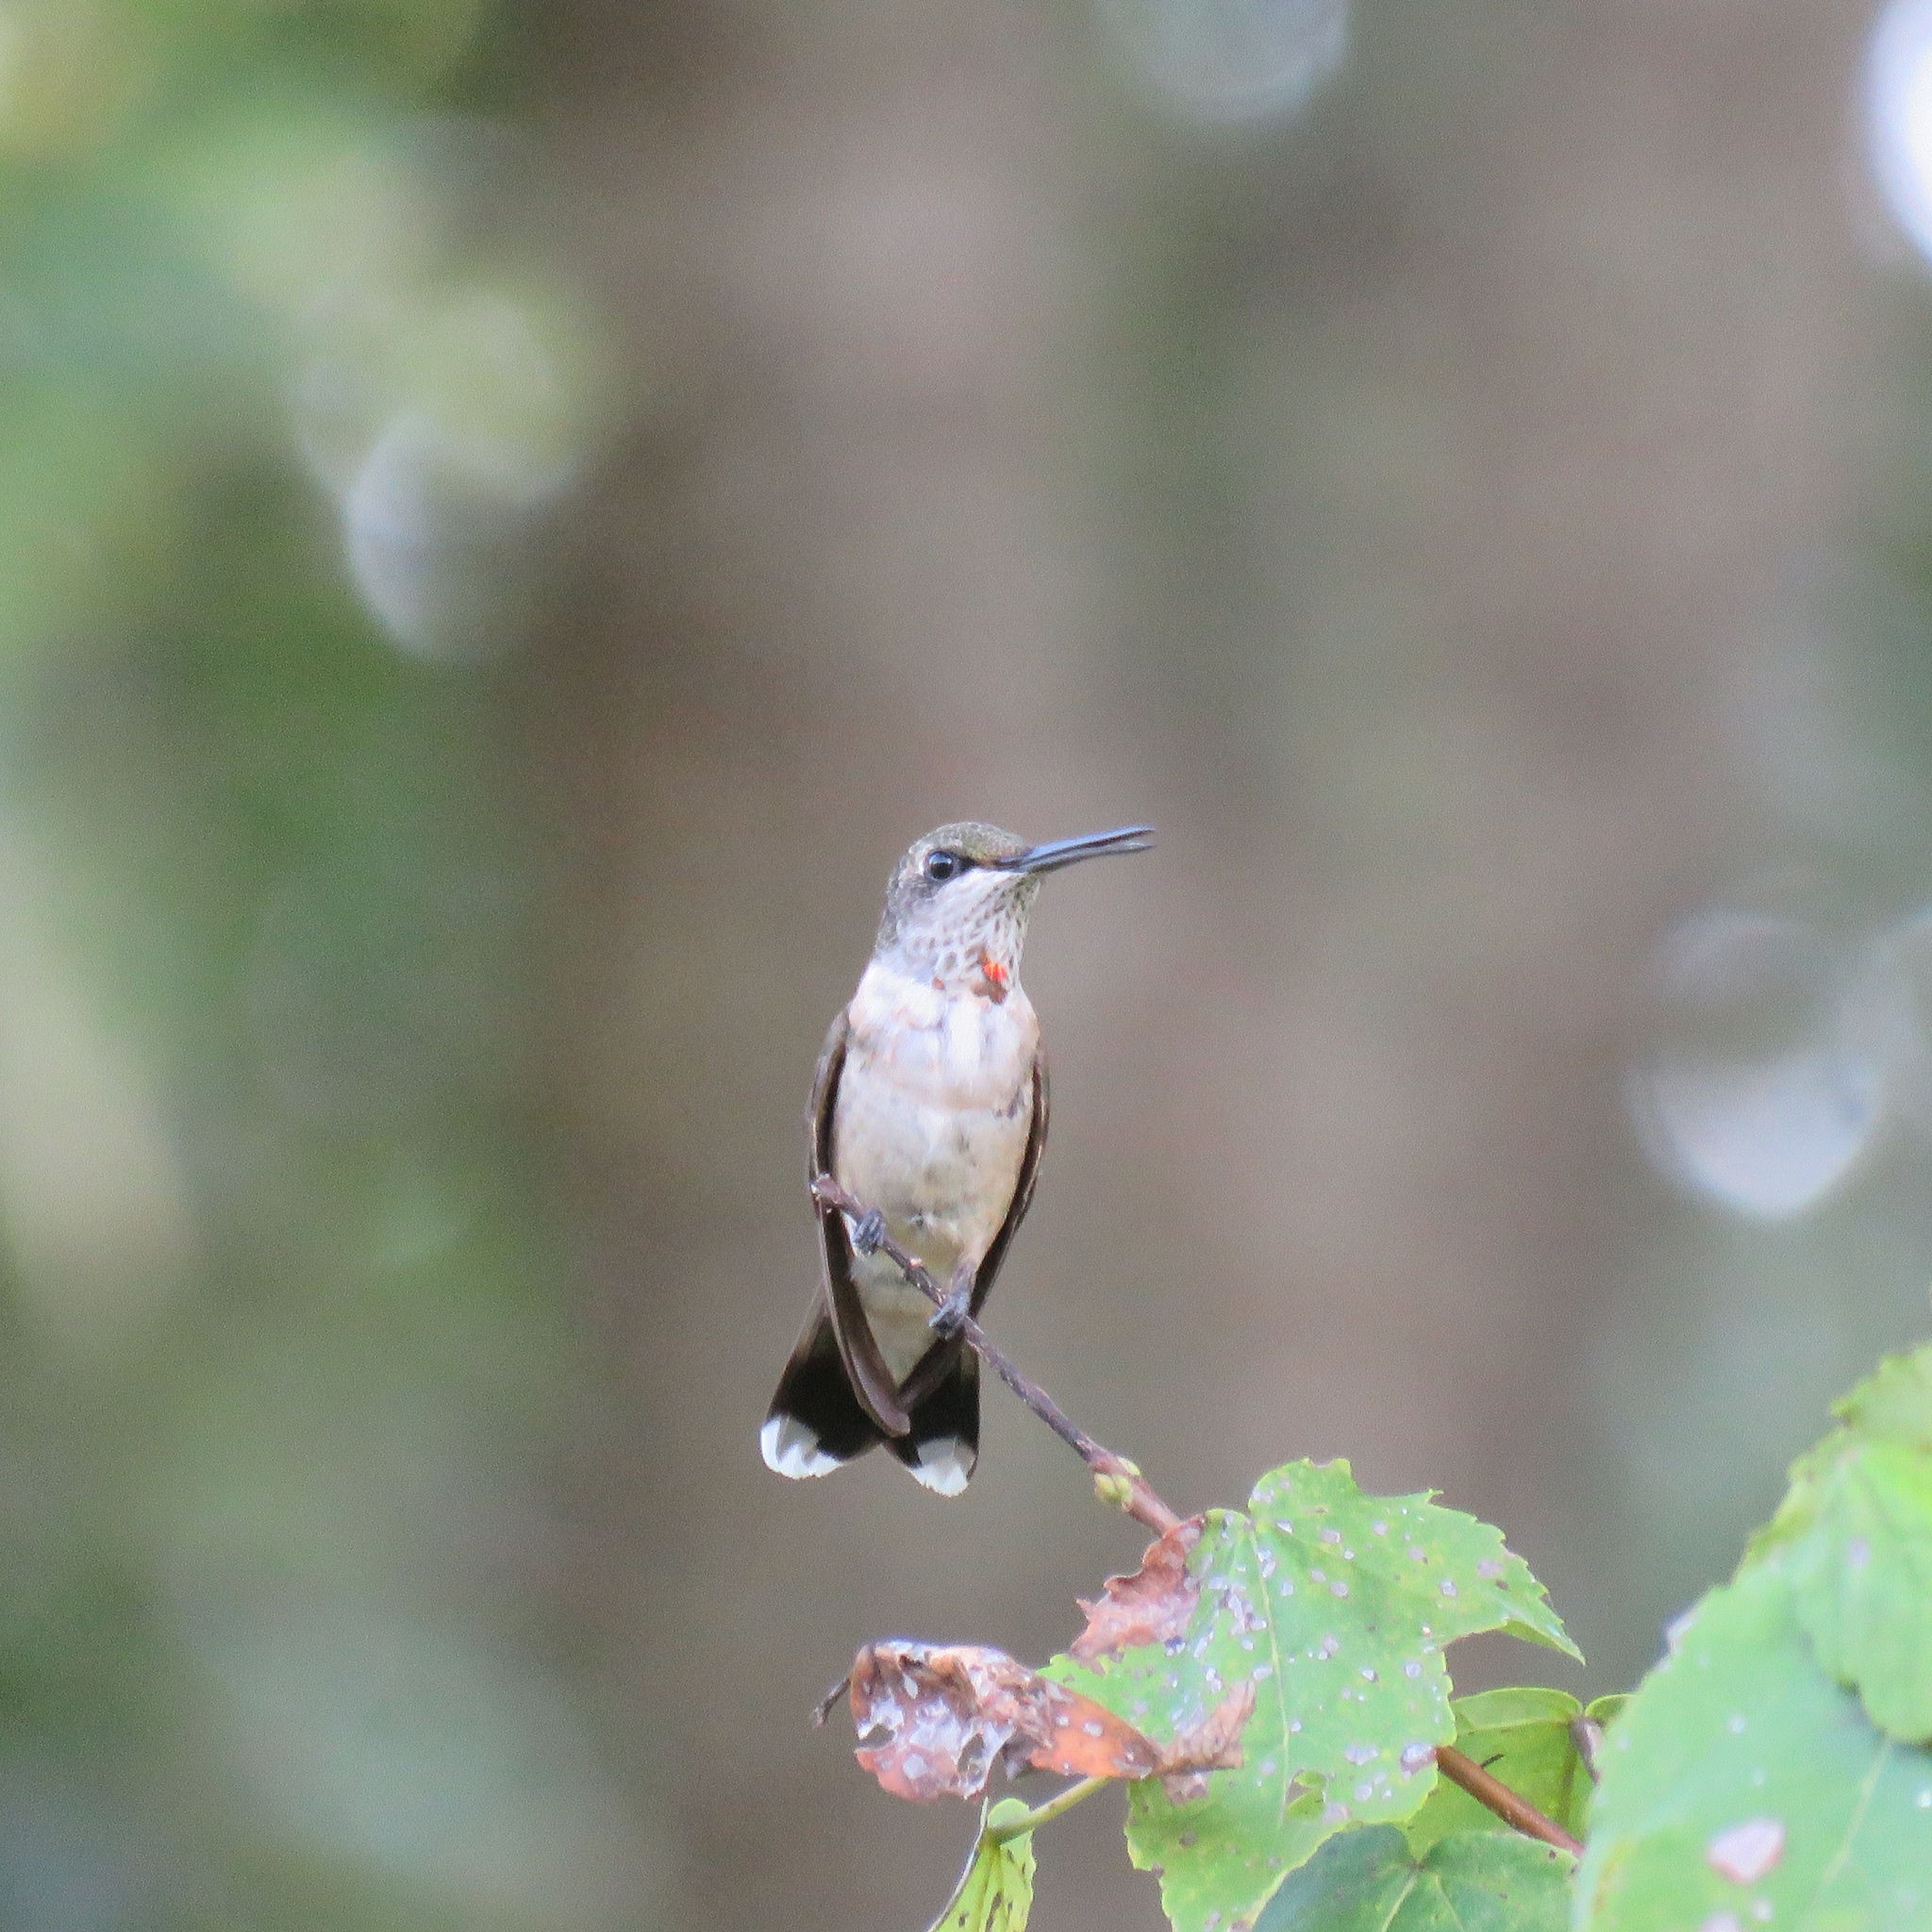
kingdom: Animalia
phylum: Chordata
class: Aves
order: Apodiformes
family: Trochilidae
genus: Archilochus
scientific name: Archilochus colubris
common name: Ruby-throated hummingbird
